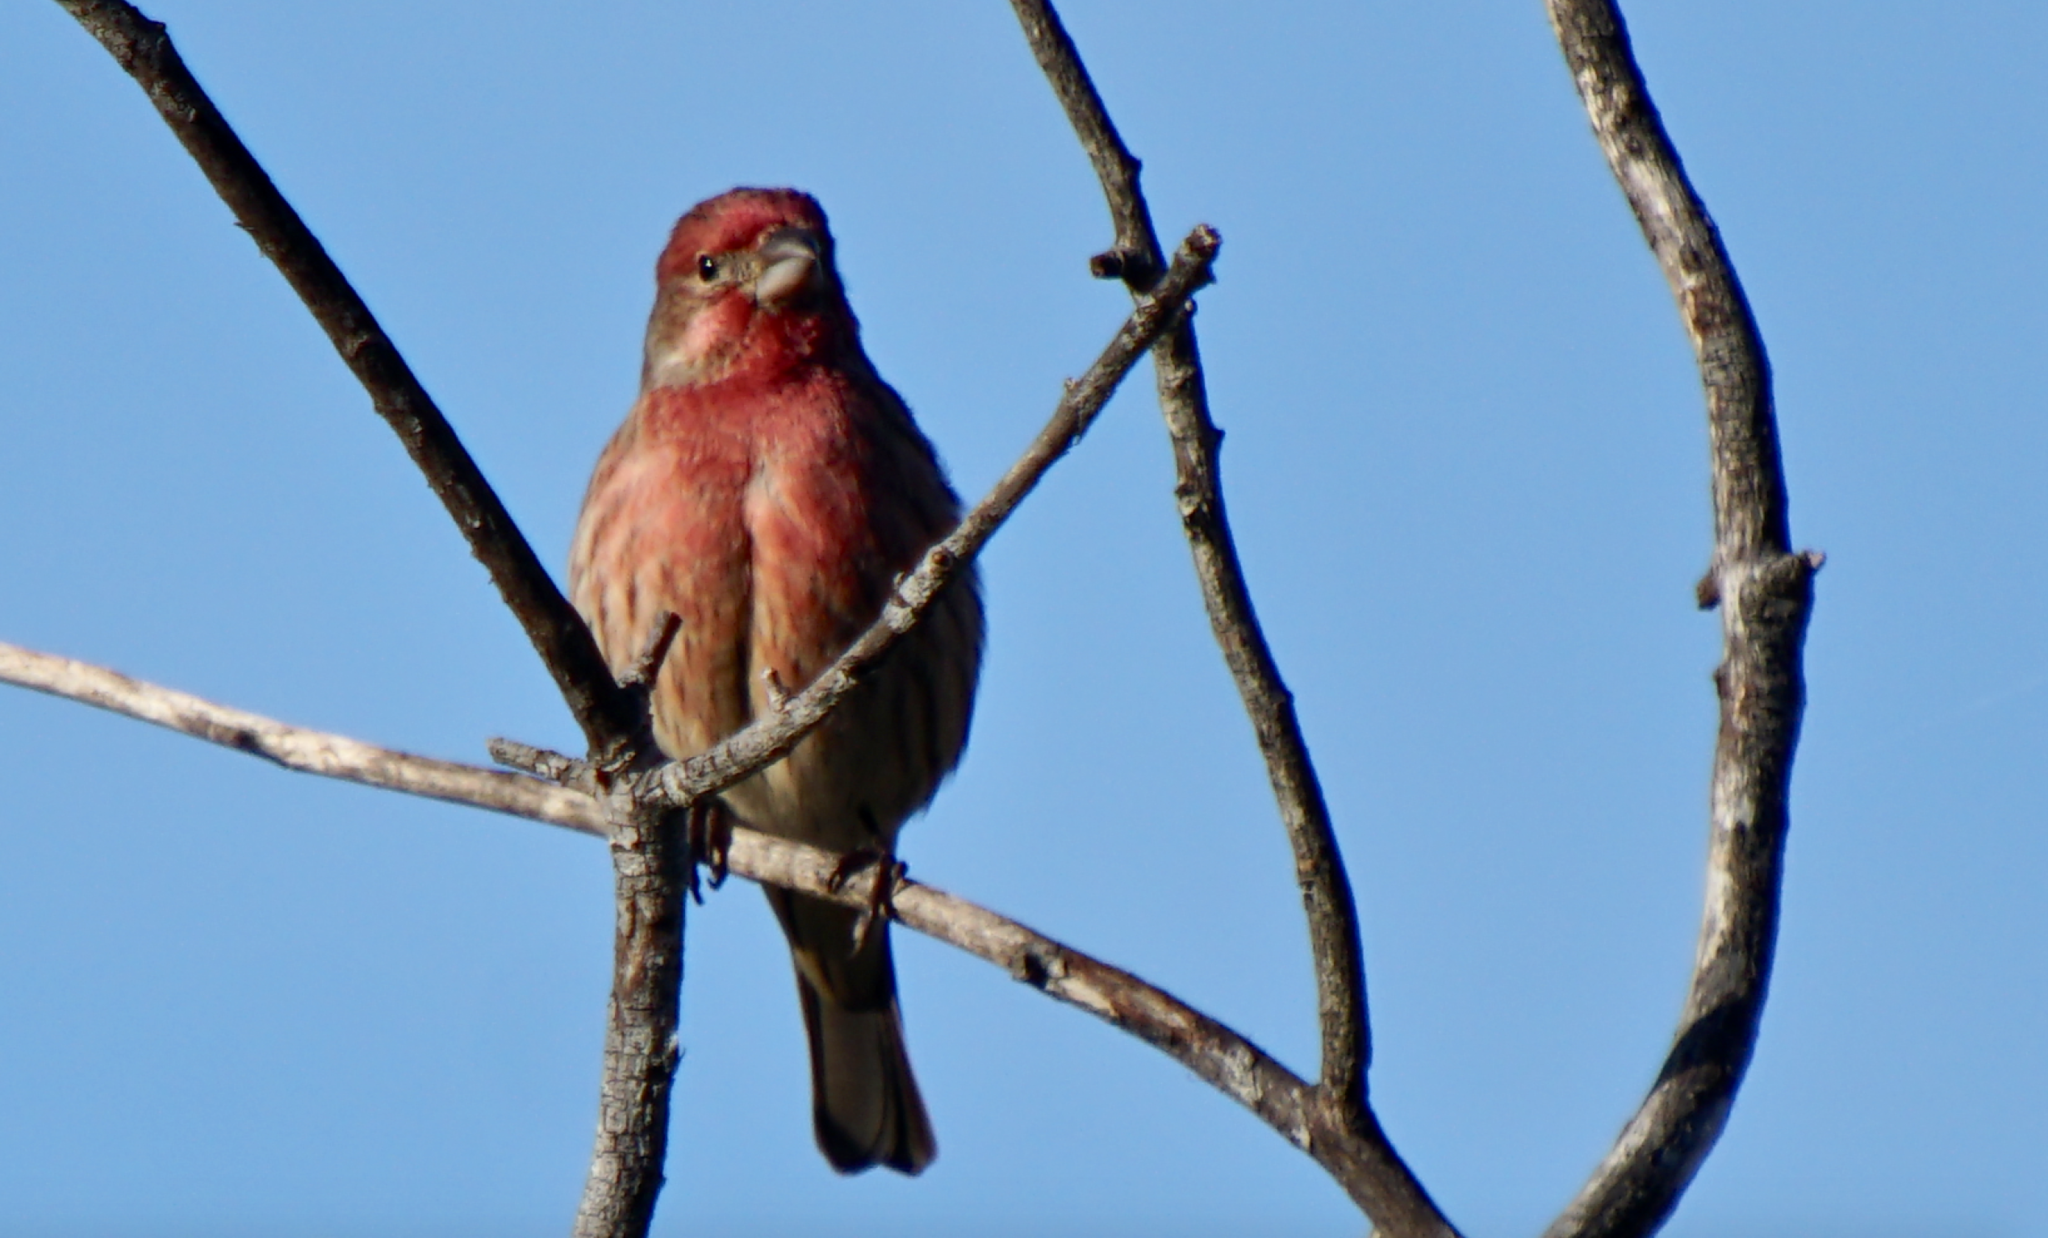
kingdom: Animalia
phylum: Chordata
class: Aves
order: Passeriformes
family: Fringillidae
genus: Haemorhous
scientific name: Haemorhous mexicanus
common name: House finch
